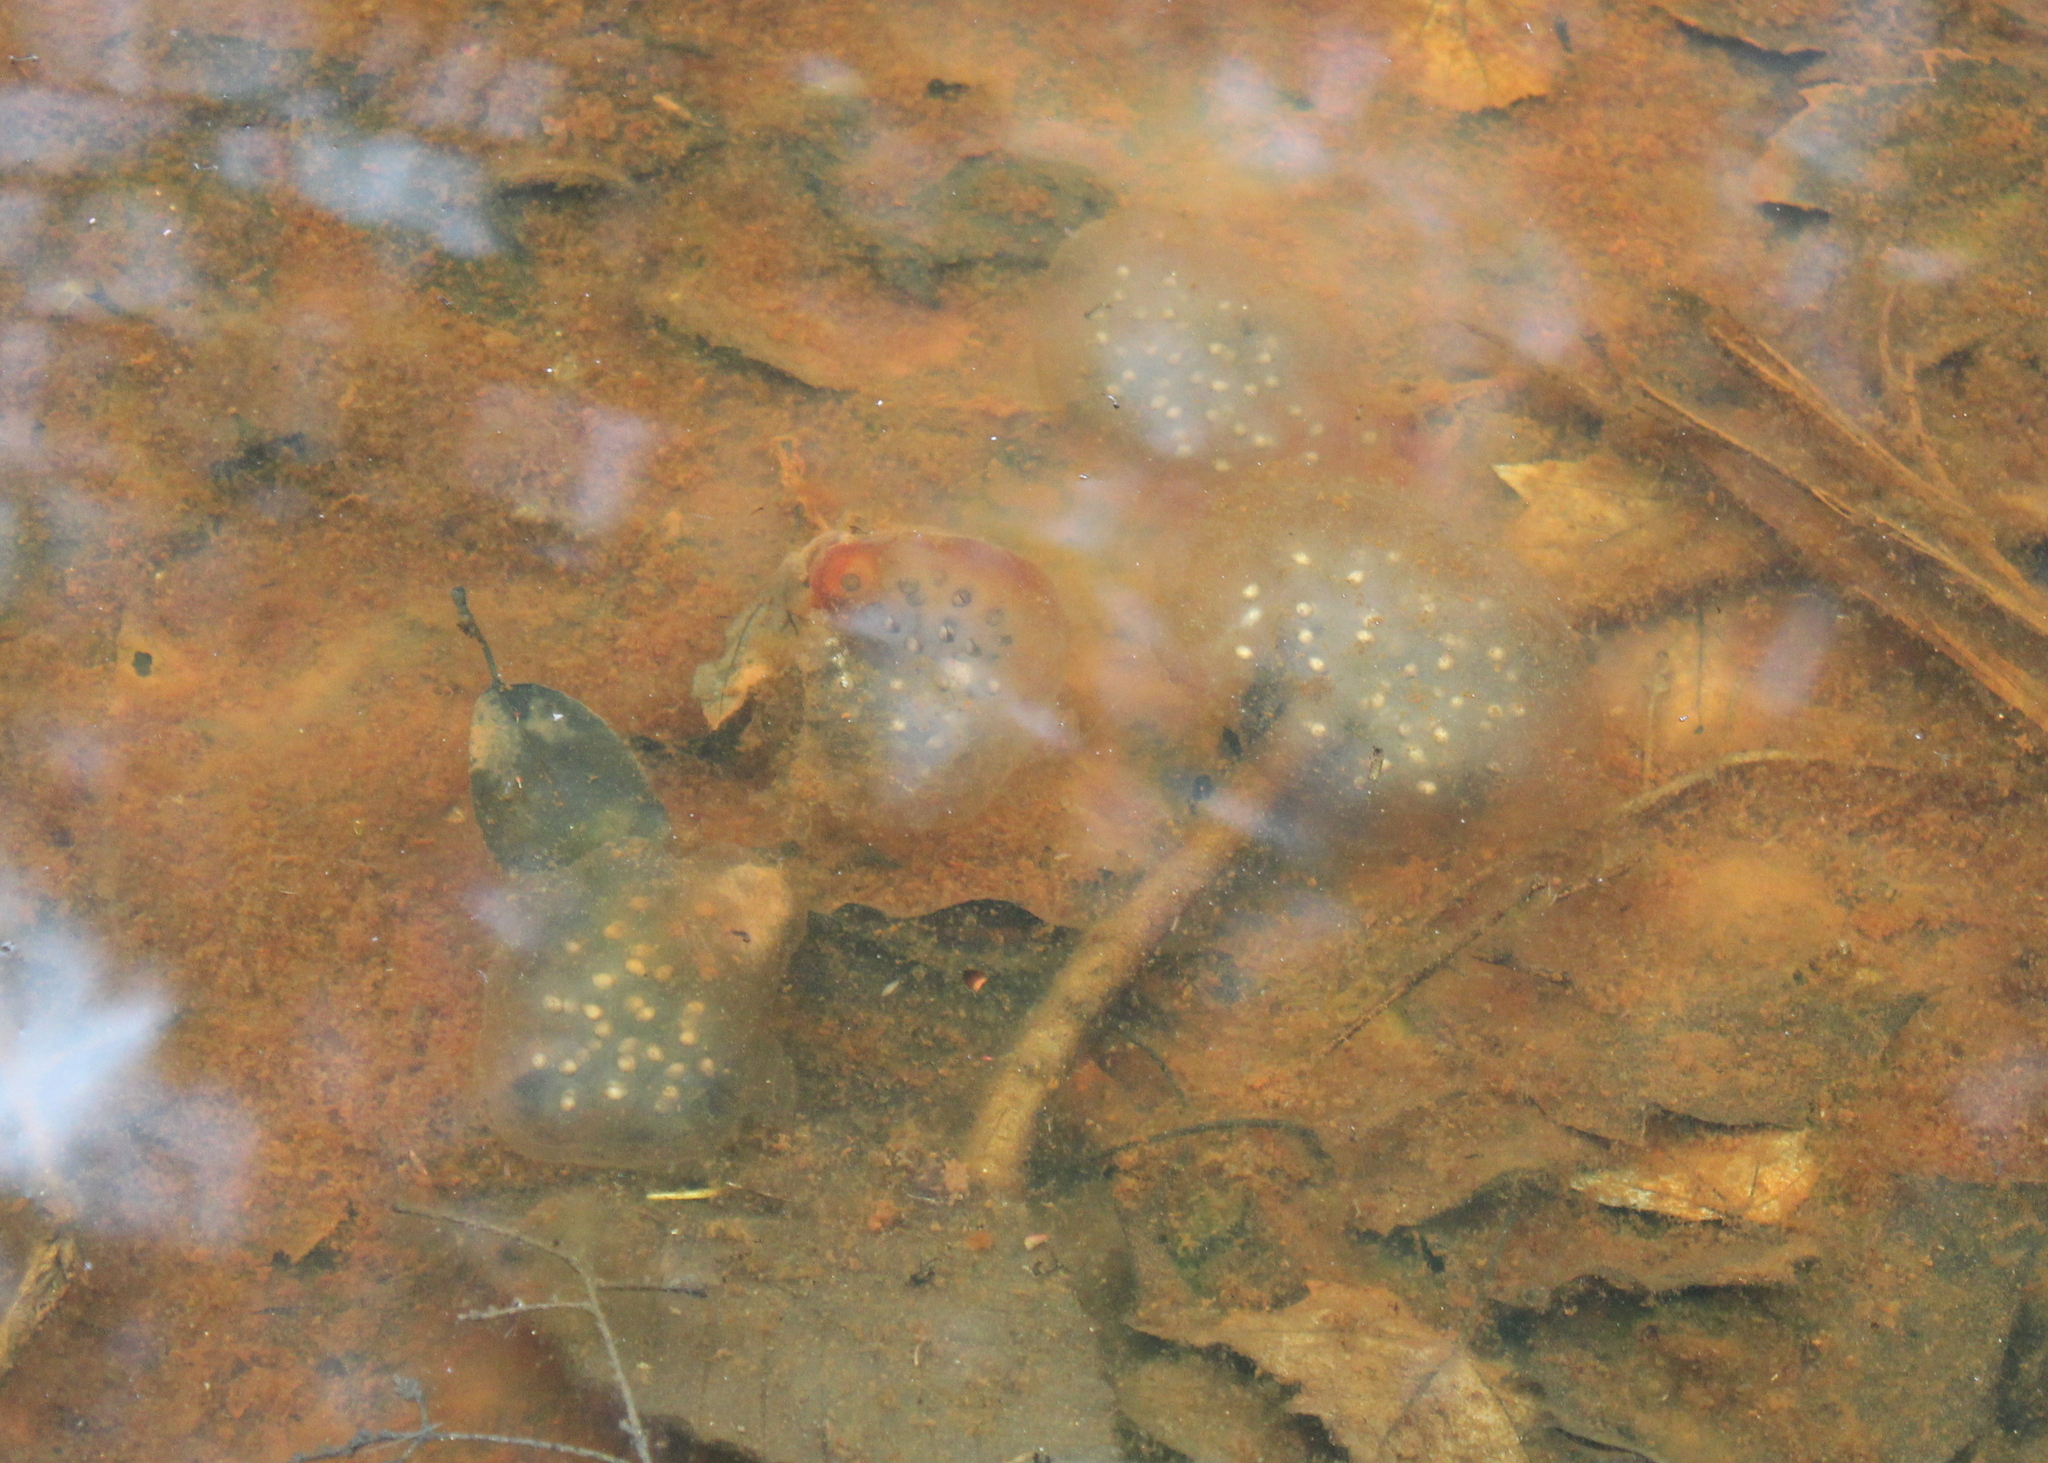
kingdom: Animalia
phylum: Chordata
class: Amphibia
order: Caudata
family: Ambystomatidae
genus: Ambystoma
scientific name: Ambystoma maculatum
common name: Spotted salamander
